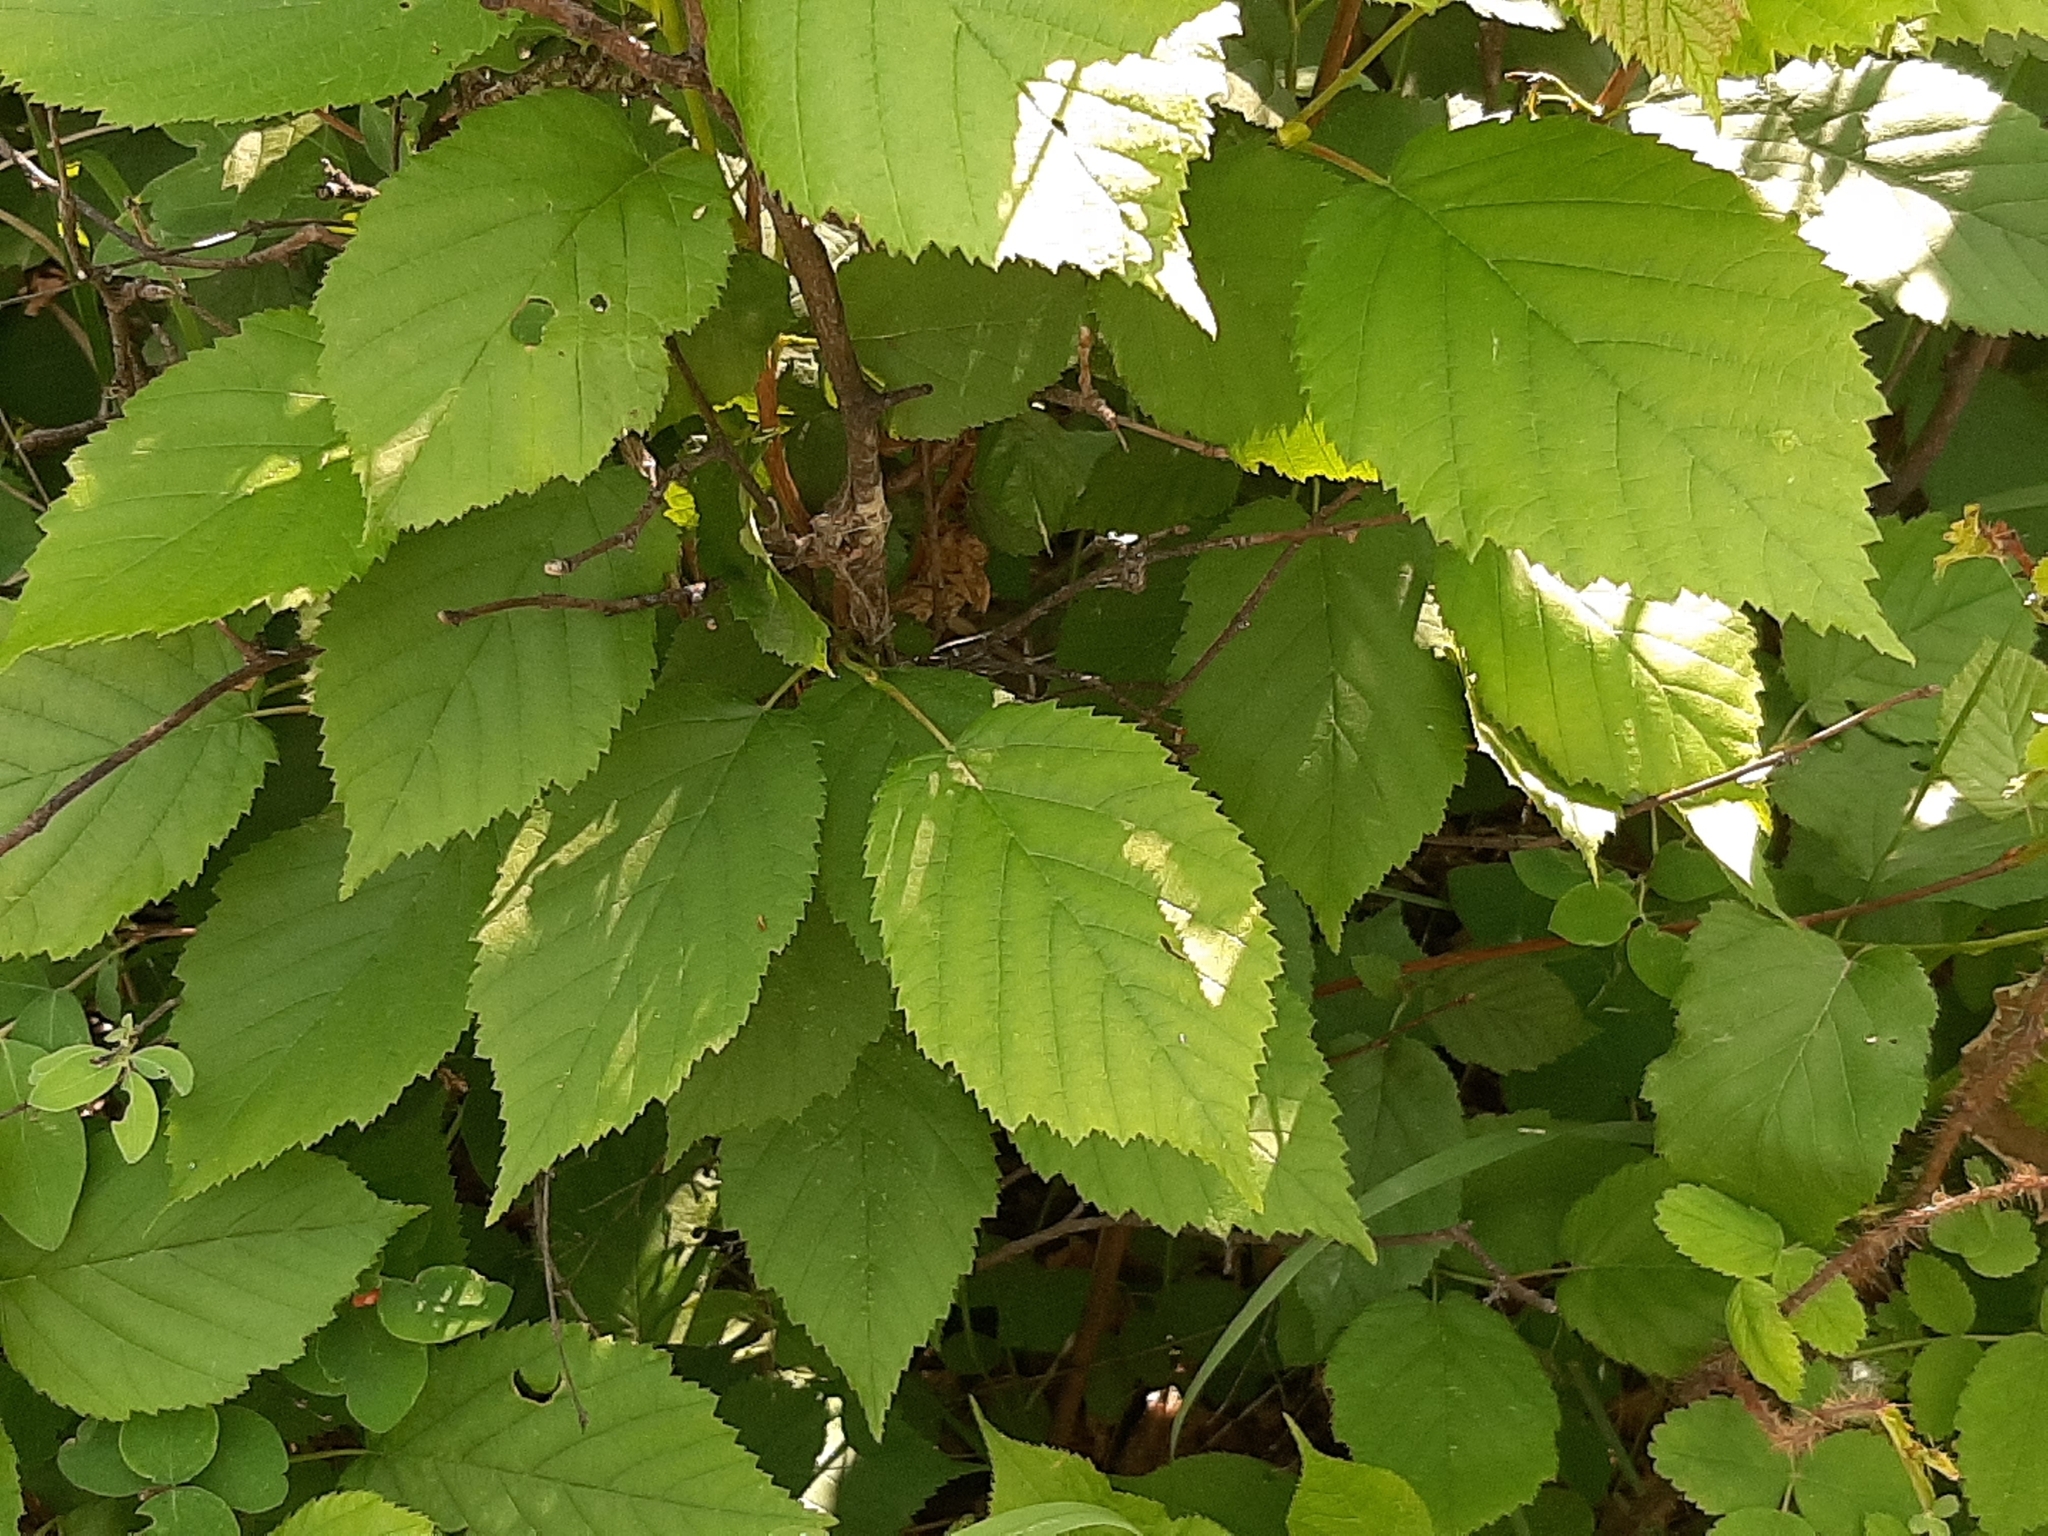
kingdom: Plantae
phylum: Tracheophyta
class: Magnoliopsida
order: Fagales
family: Betulaceae
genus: Corylus
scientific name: Corylus cornuta
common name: Beaked hazel
